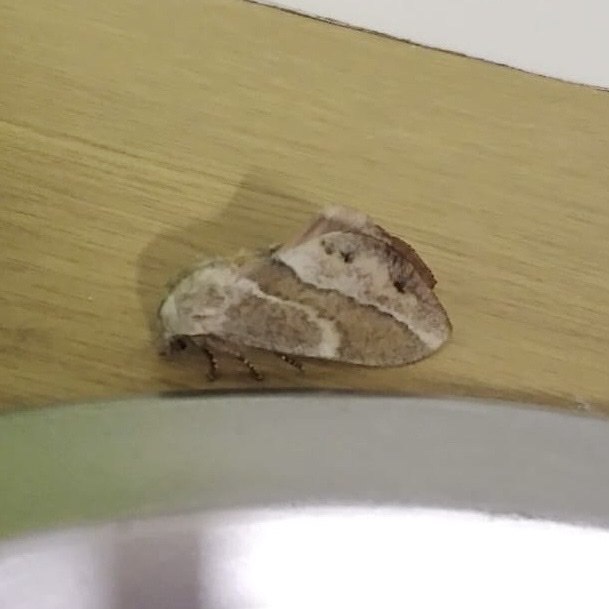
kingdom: Animalia
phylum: Arthropoda
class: Insecta
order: Lepidoptera
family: Lasiocampidae
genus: Eutricha
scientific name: Eutricha capensis
